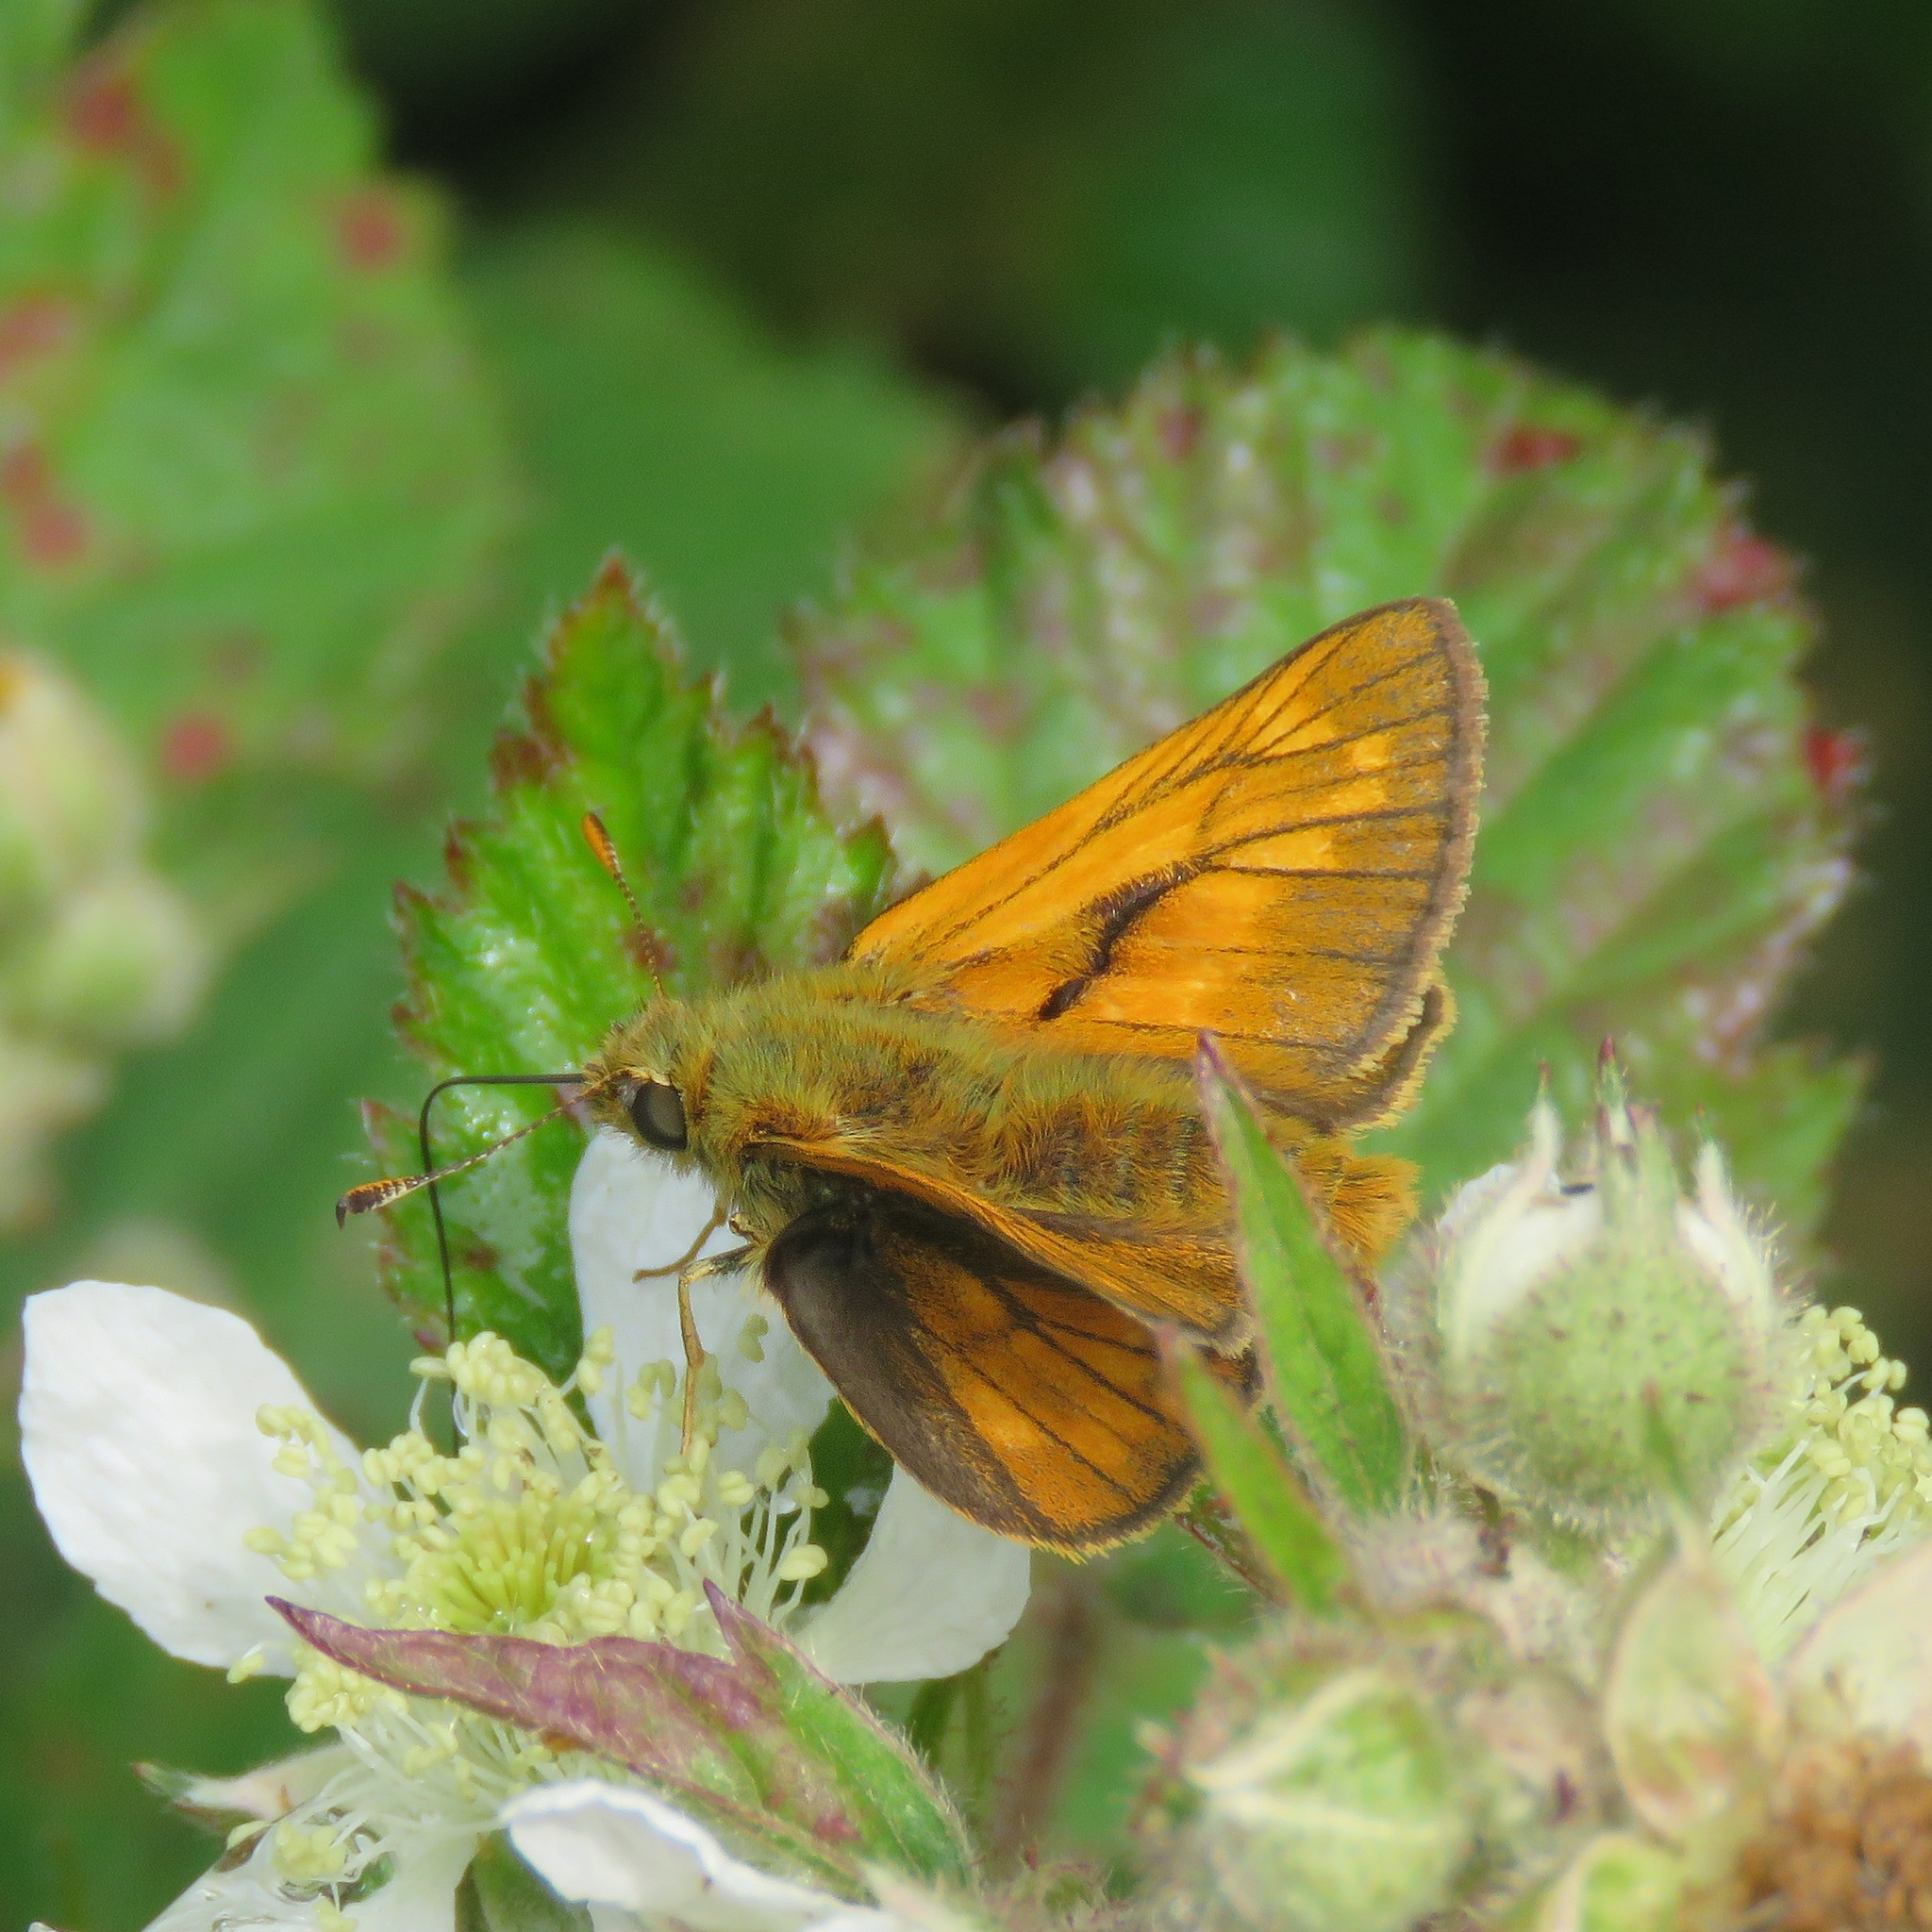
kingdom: Animalia
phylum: Arthropoda
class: Insecta
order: Lepidoptera
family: Hesperiidae
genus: Ochlodes
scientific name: Ochlodes venata
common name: Large skipper
